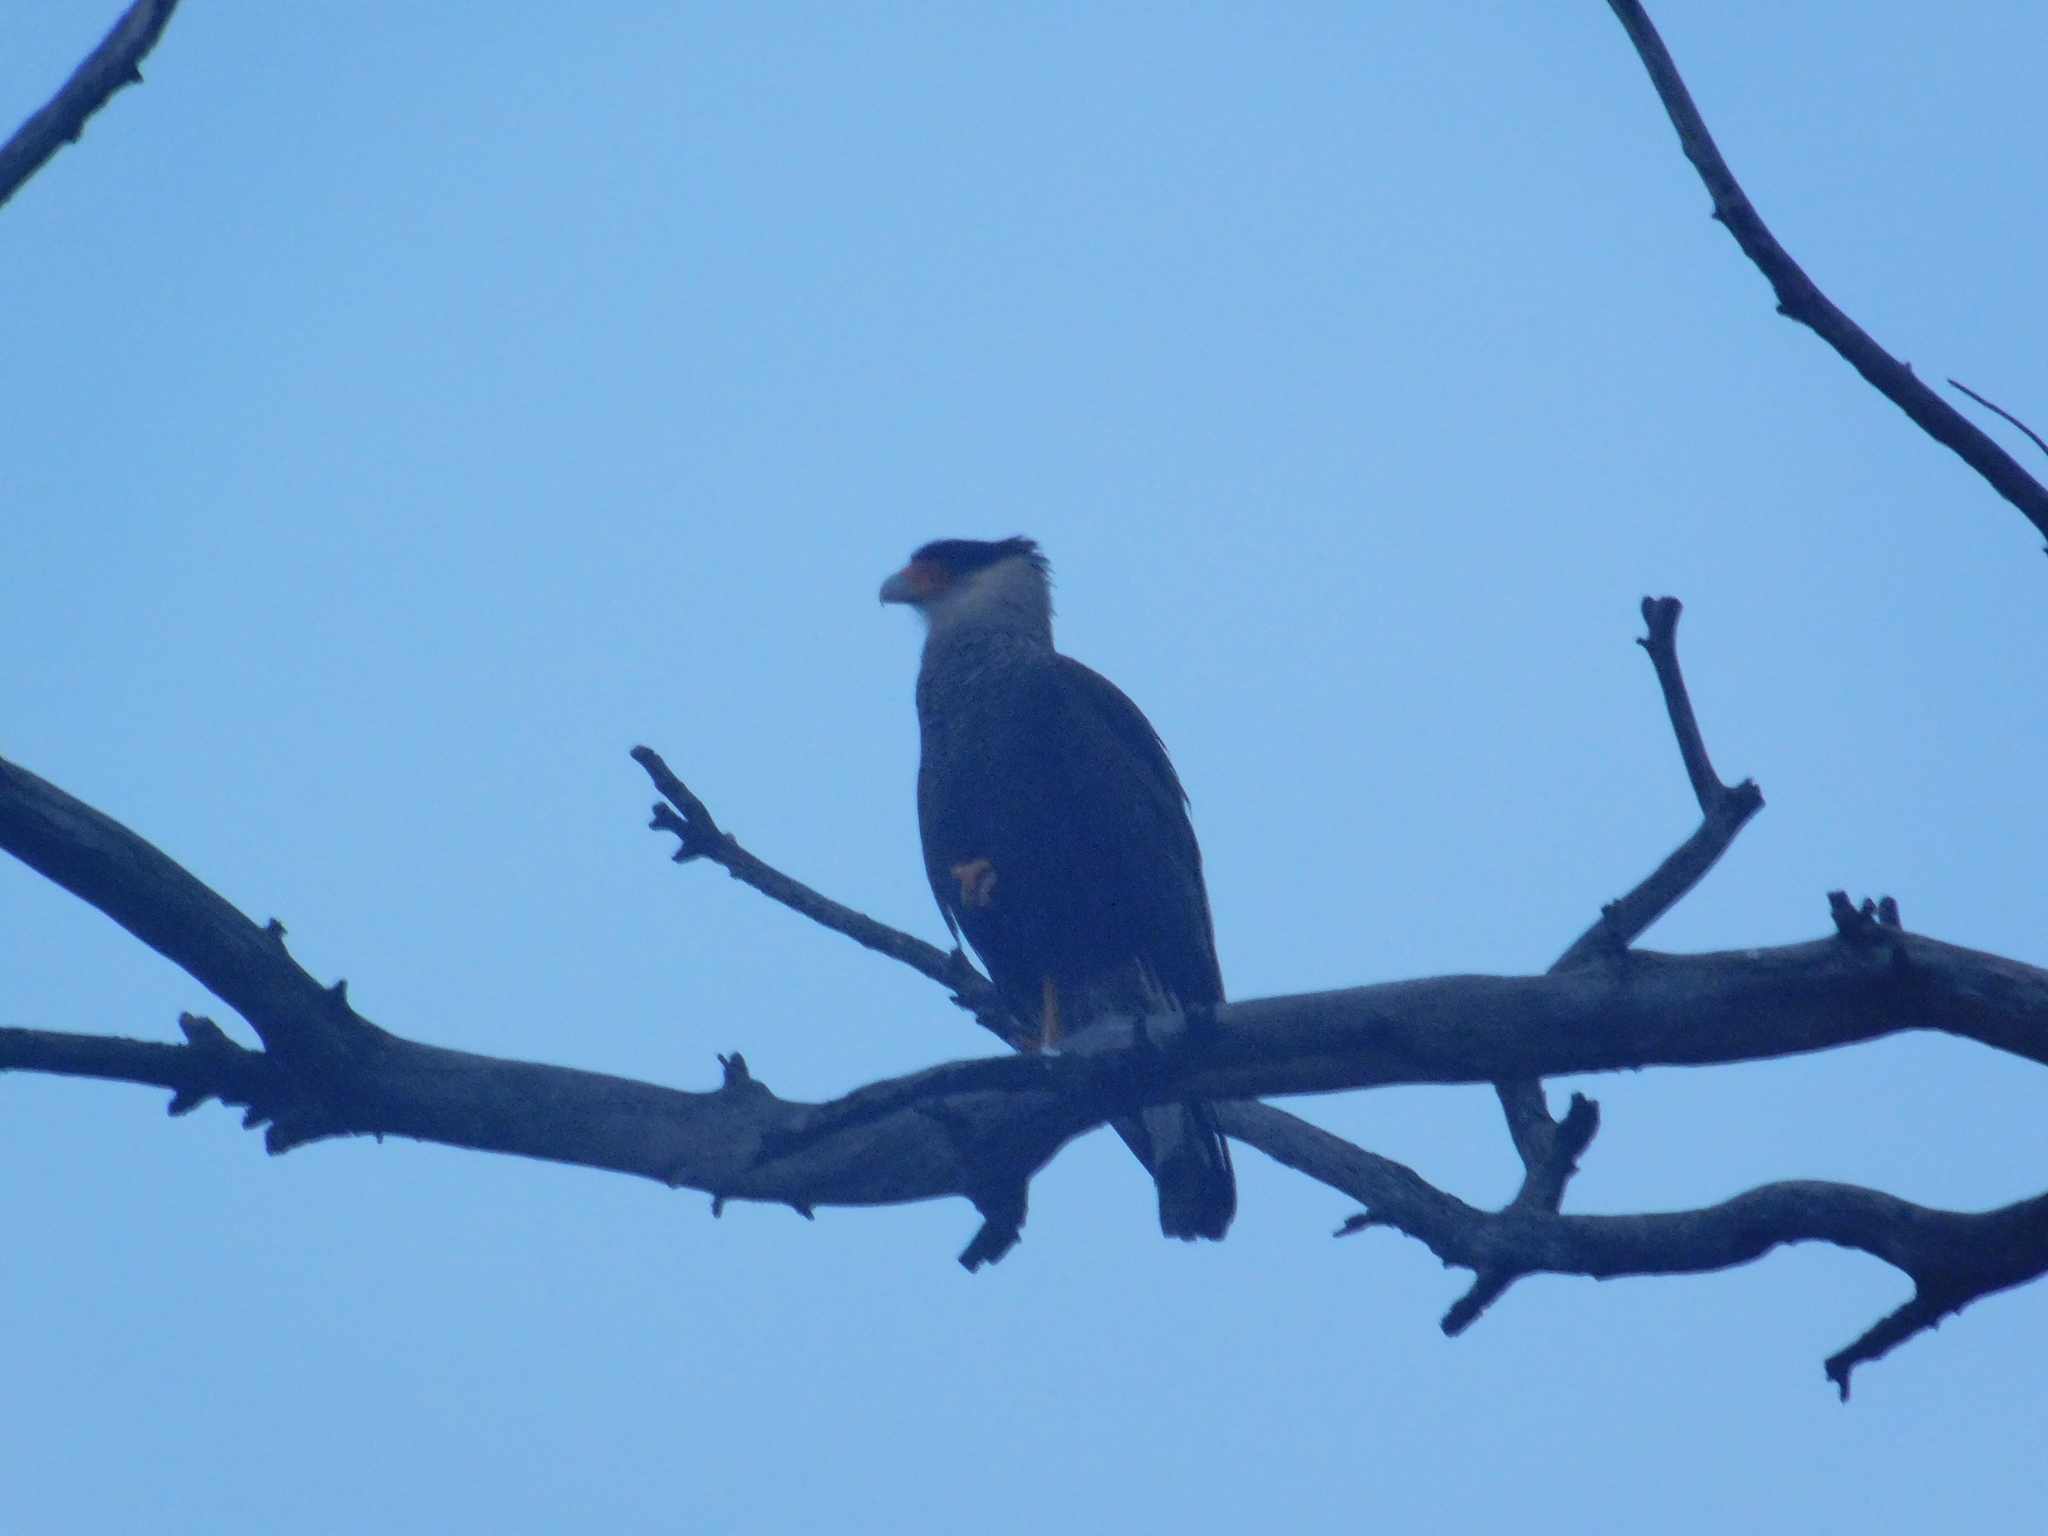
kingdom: Animalia
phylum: Chordata
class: Aves
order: Falconiformes
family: Falconidae
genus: Caracara
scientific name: Caracara plancus
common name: Southern caracara
